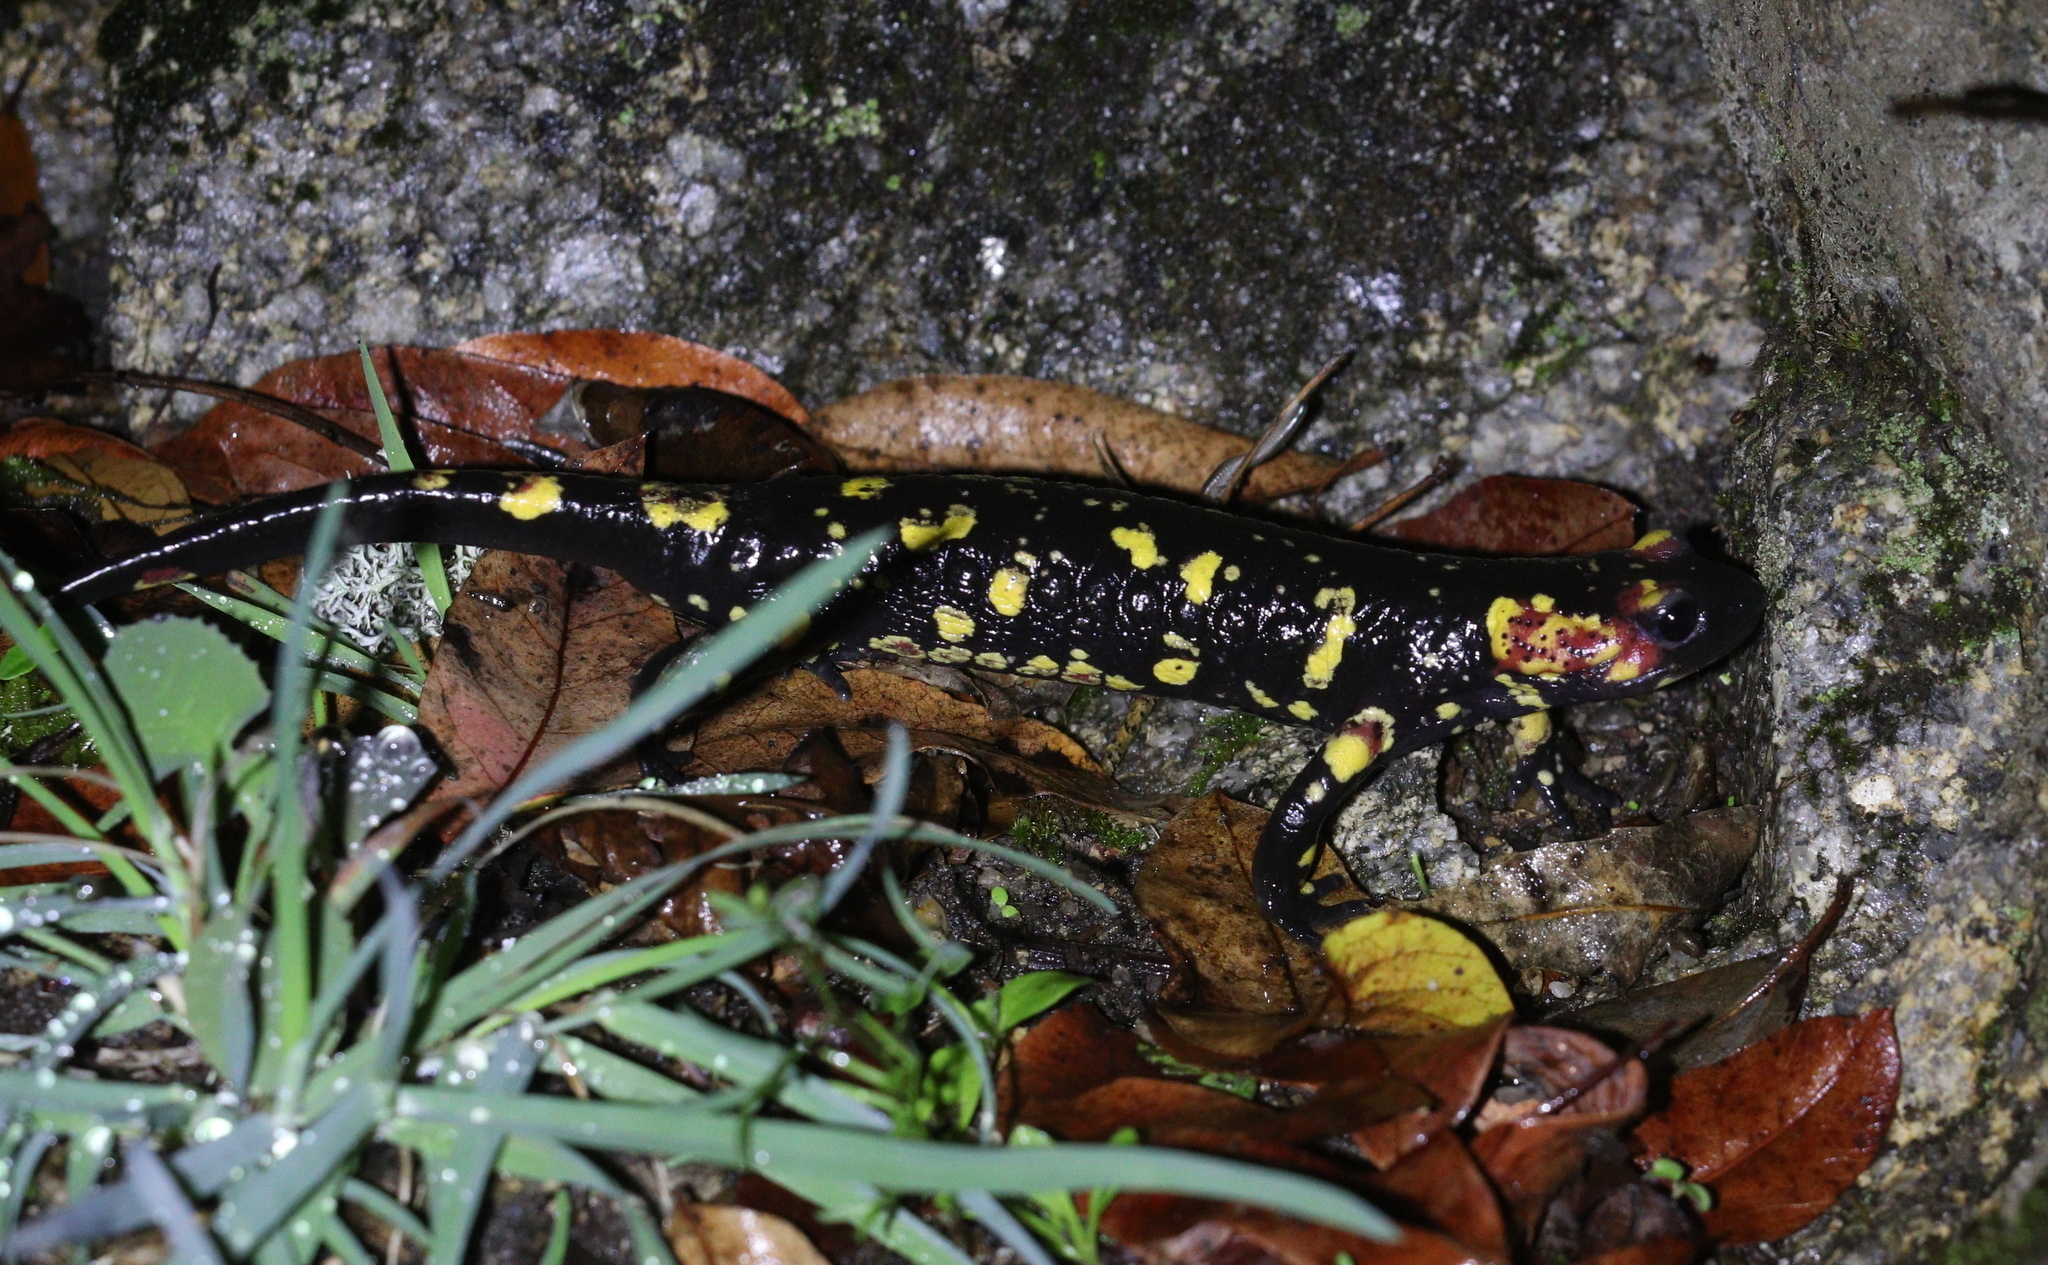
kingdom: Animalia
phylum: Chordata
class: Amphibia
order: Caudata
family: Salamandridae
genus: Salamandra
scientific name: Salamandra salamandra
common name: Fire salamander
